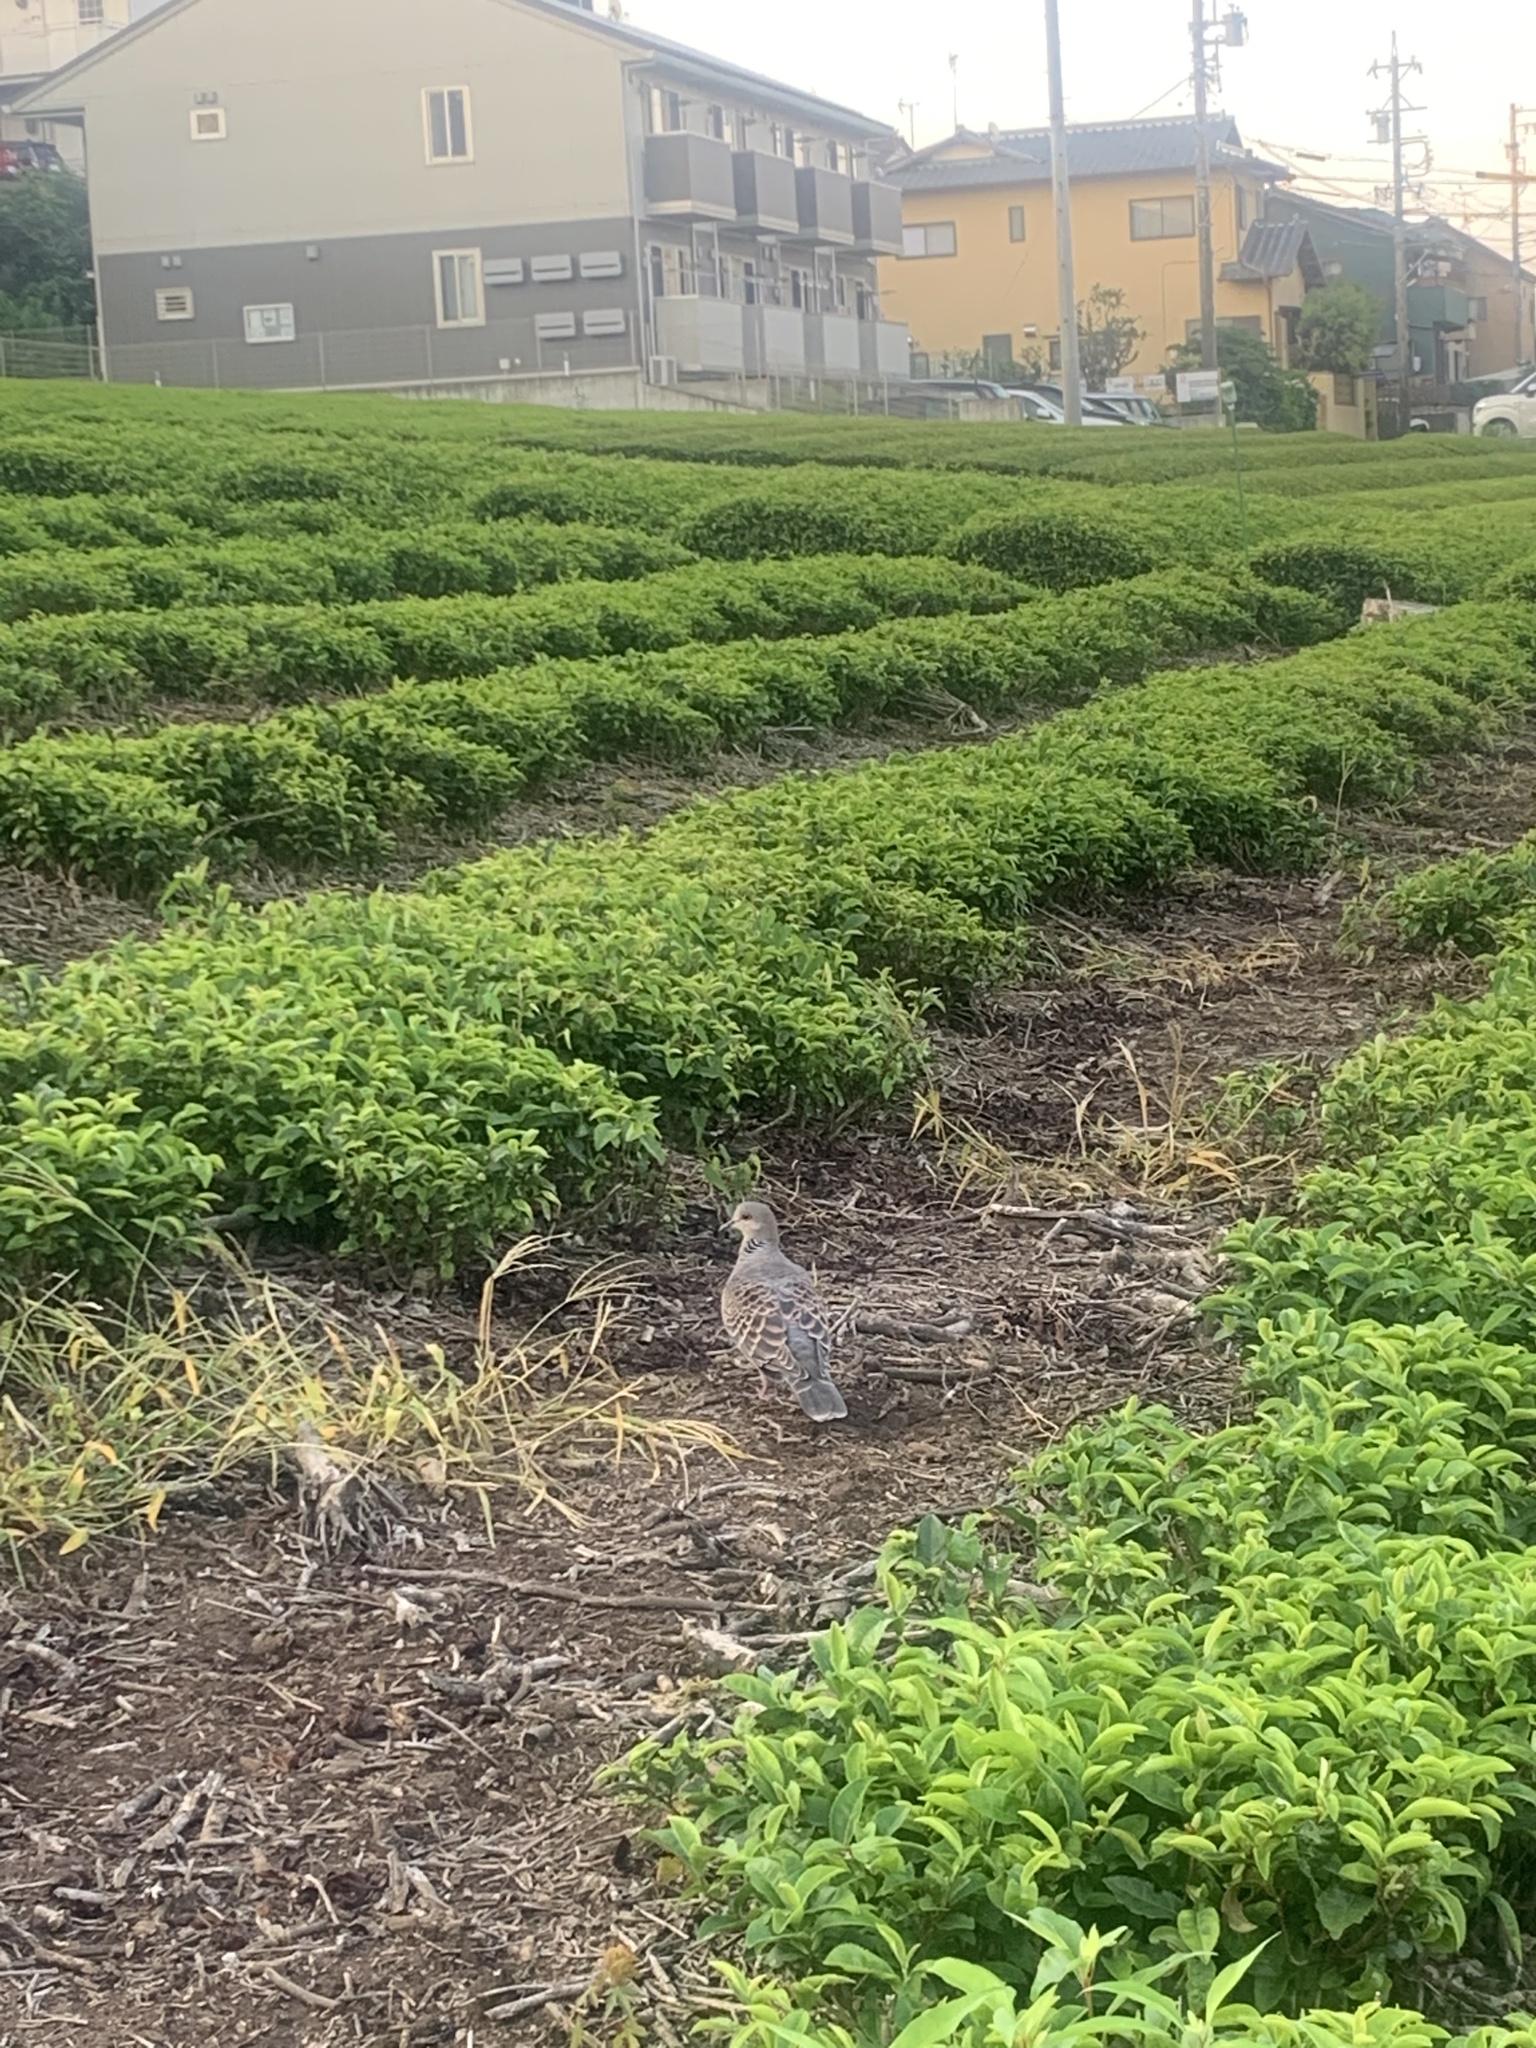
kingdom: Animalia
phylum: Chordata
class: Aves
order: Columbiformes
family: Columbidae
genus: Streptopelia
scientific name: Streptopelia orientalis
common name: Oriental turtle dove
